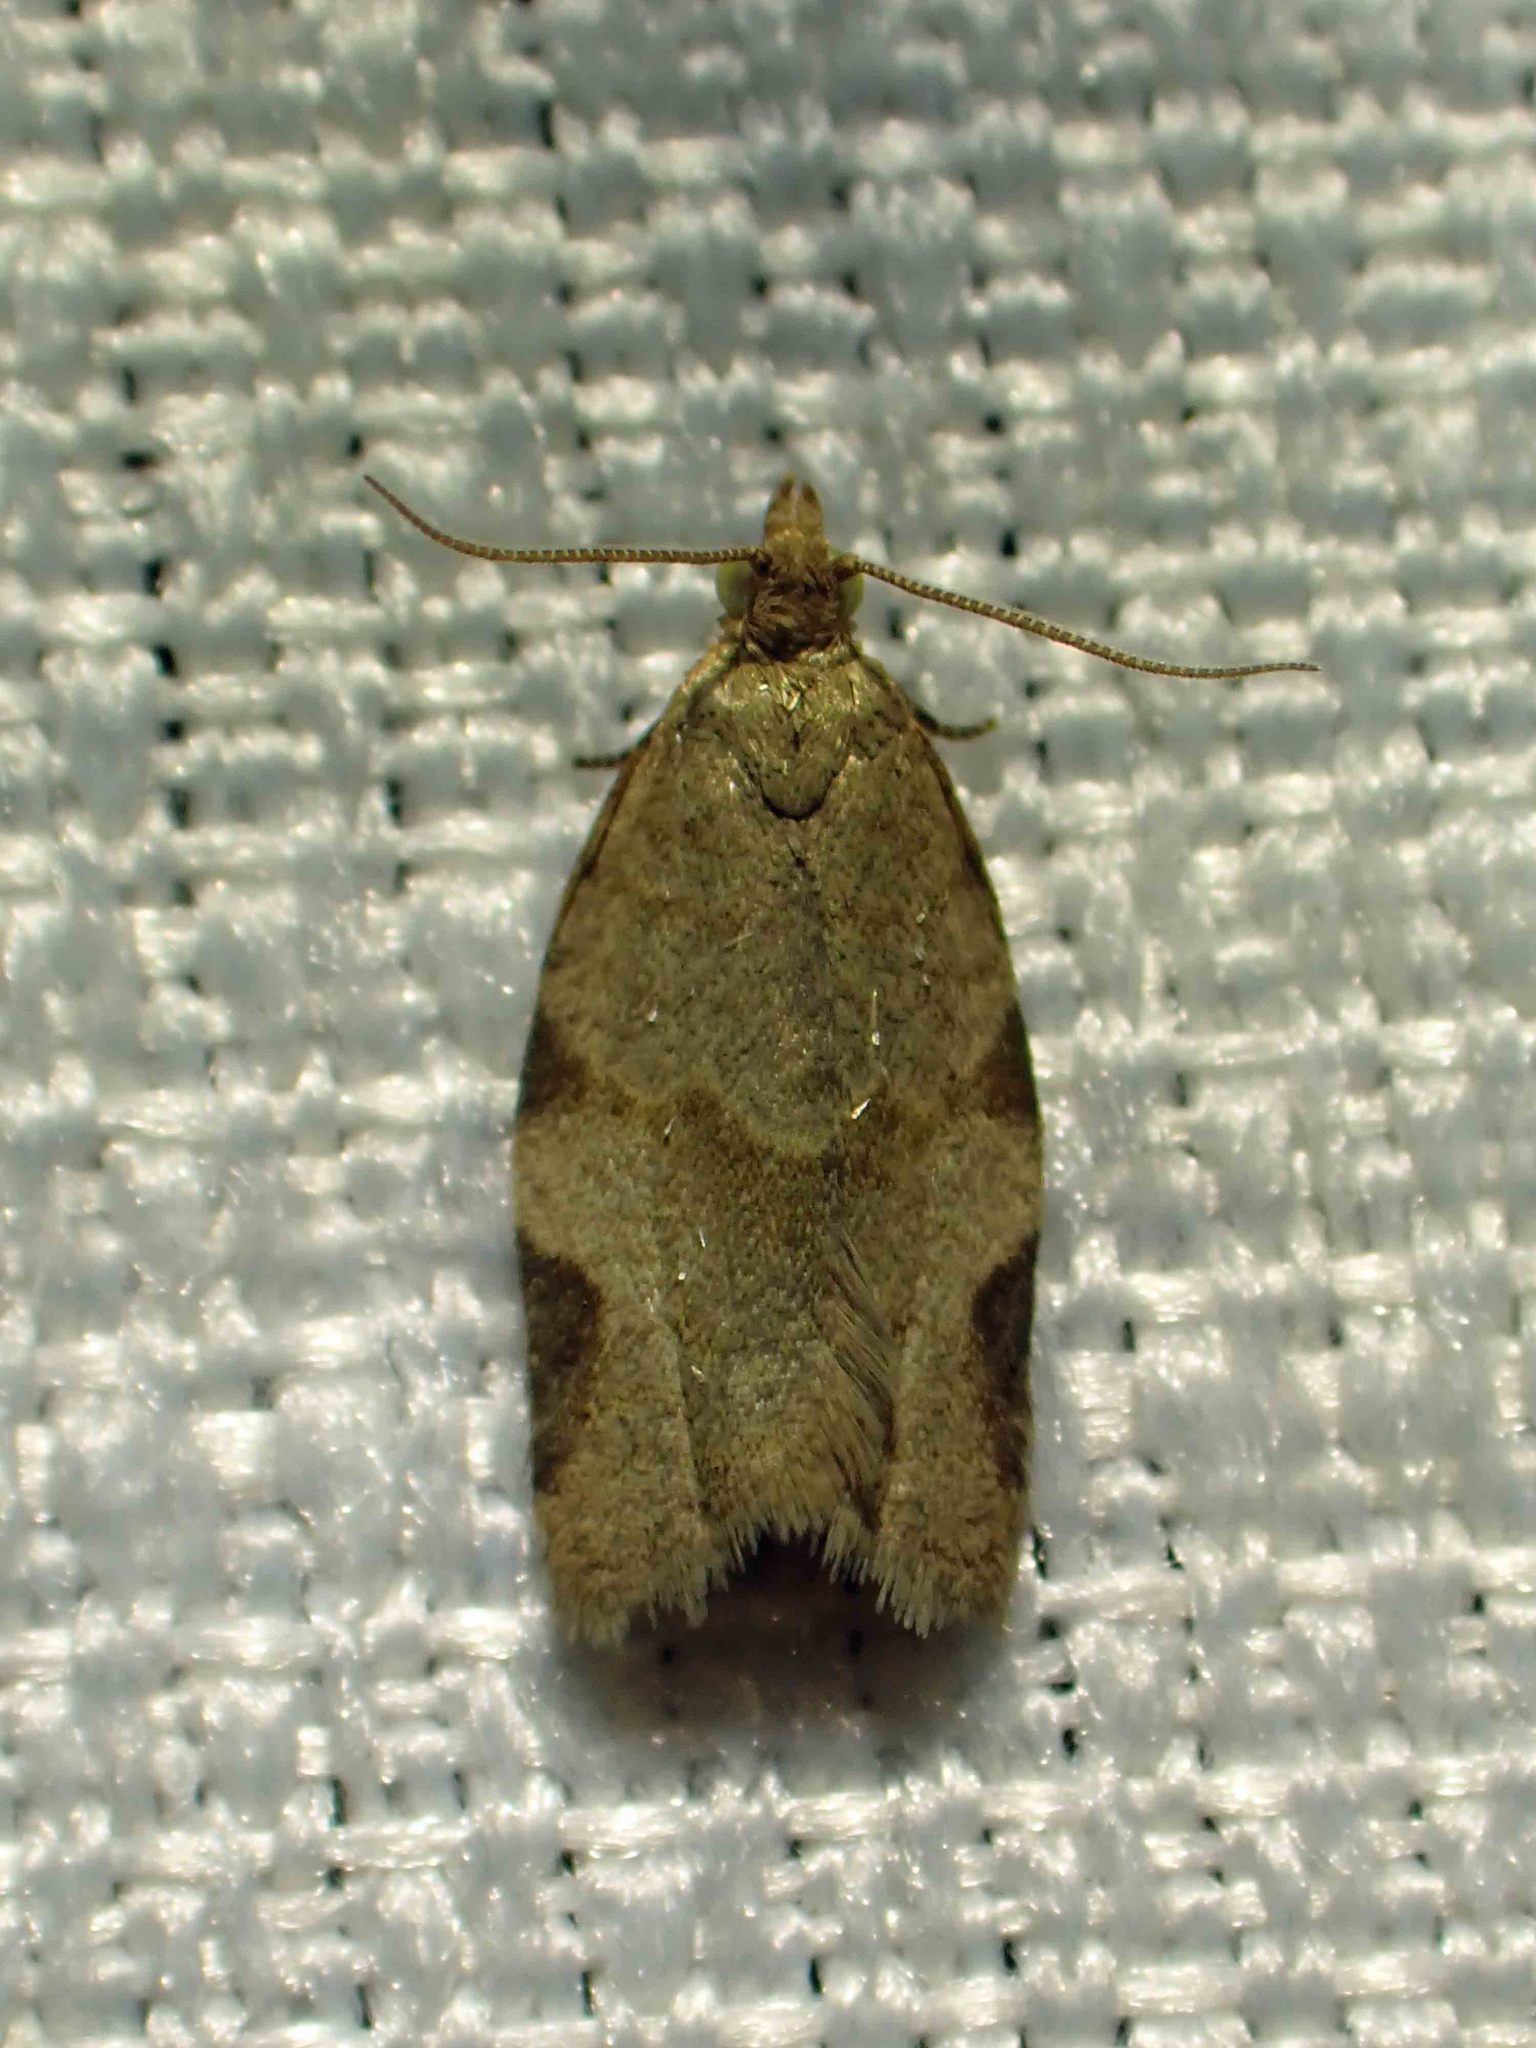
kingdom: Animalia
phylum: Arthropoda
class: Insecta
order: Lepidoptera
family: Tortricidae
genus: Clepsis
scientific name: Clepsis virescana
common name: Greenish apple moth
